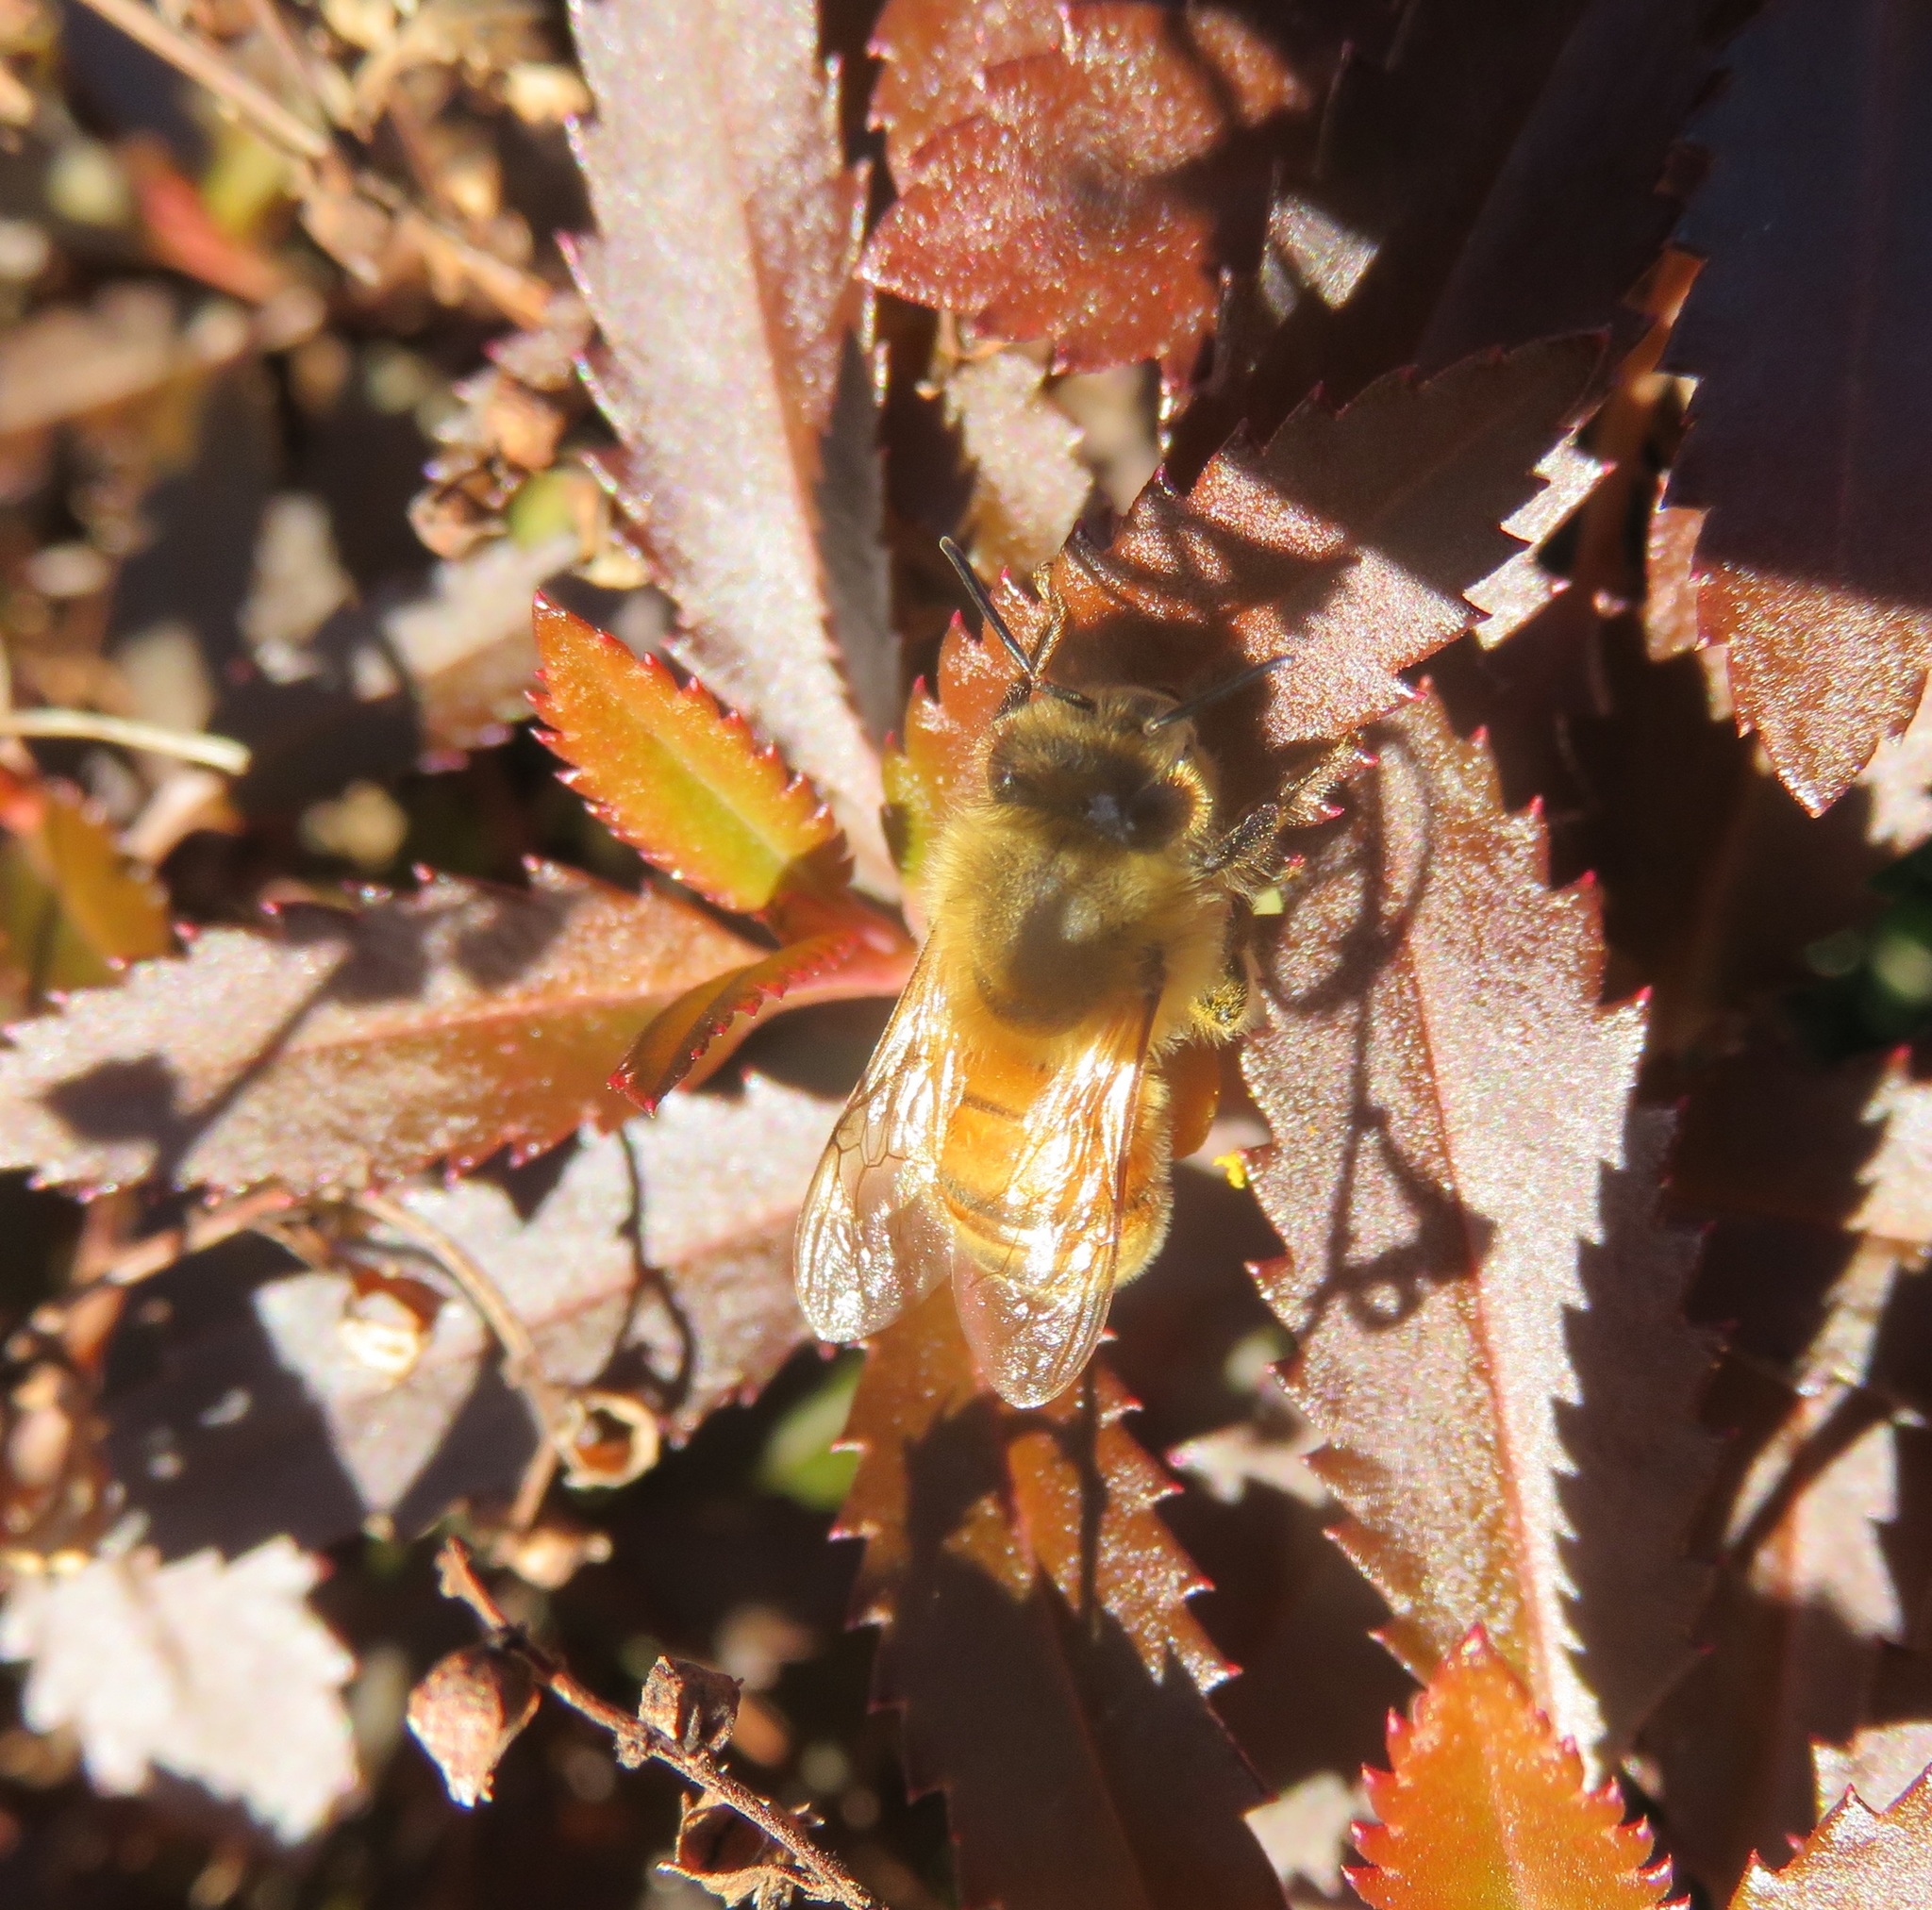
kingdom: Animalia
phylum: Arthropoda
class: Insecta
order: Hymenoptera
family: Apidae
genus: Apis
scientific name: Apis mellifera
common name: Honey bee
